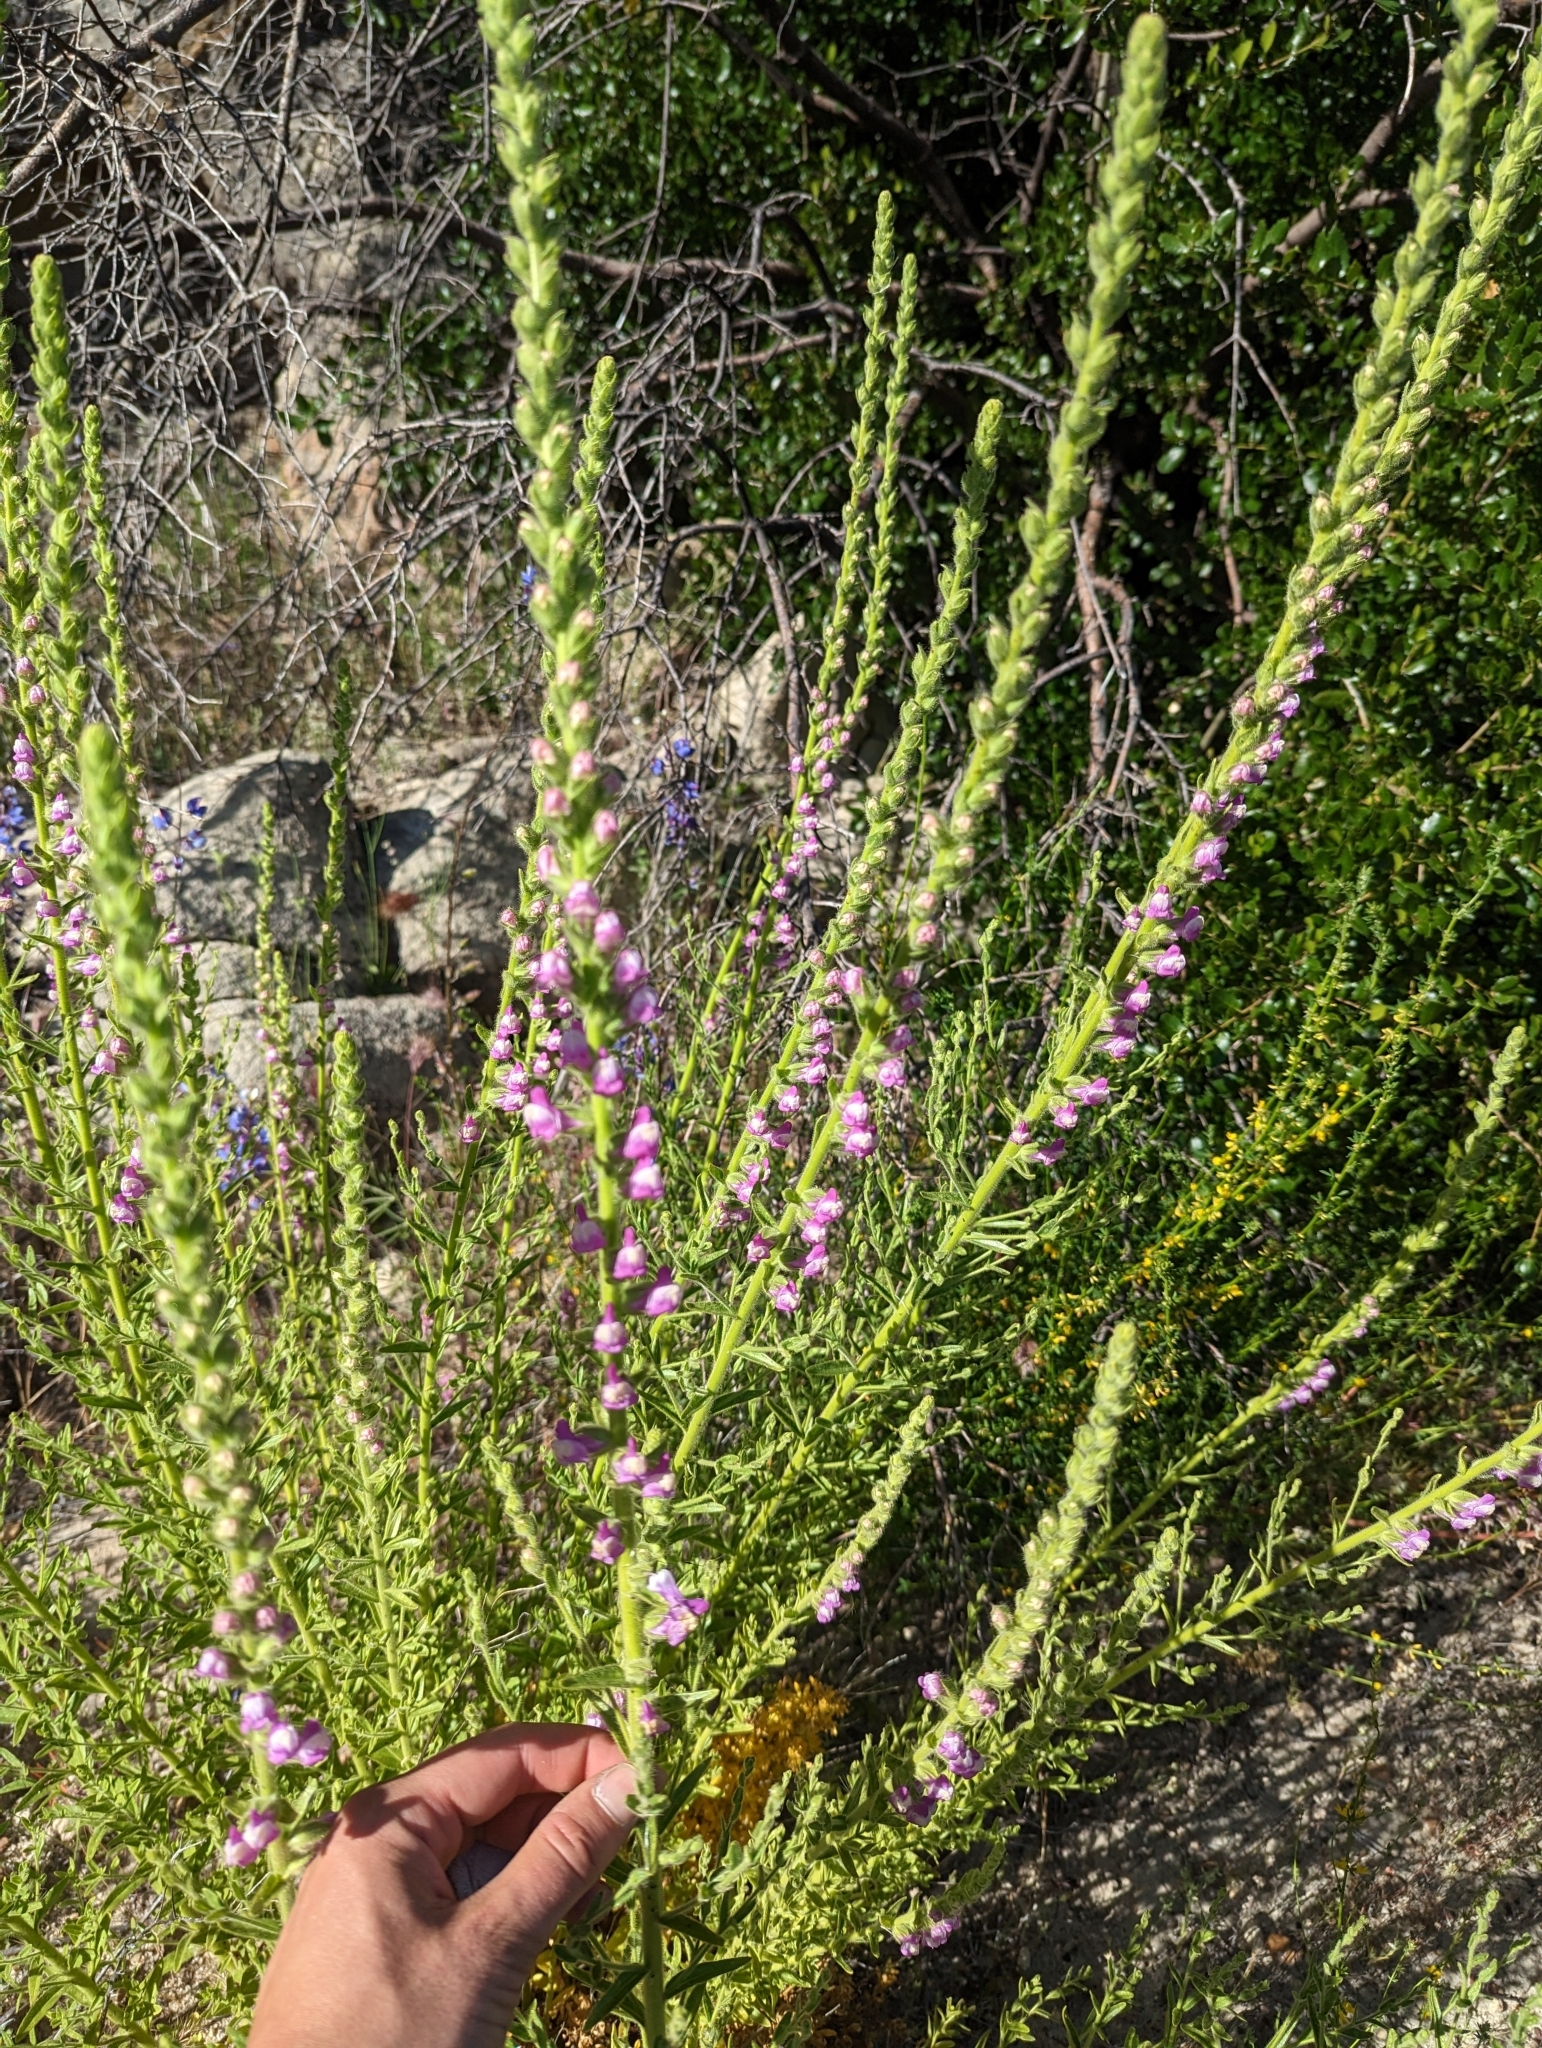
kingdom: Plantae
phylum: Tracheophyta
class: Magnoliopsida
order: Lamiales
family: Plantaginaceae
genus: Sairocarpus
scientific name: Sairocarpus multiflorus
